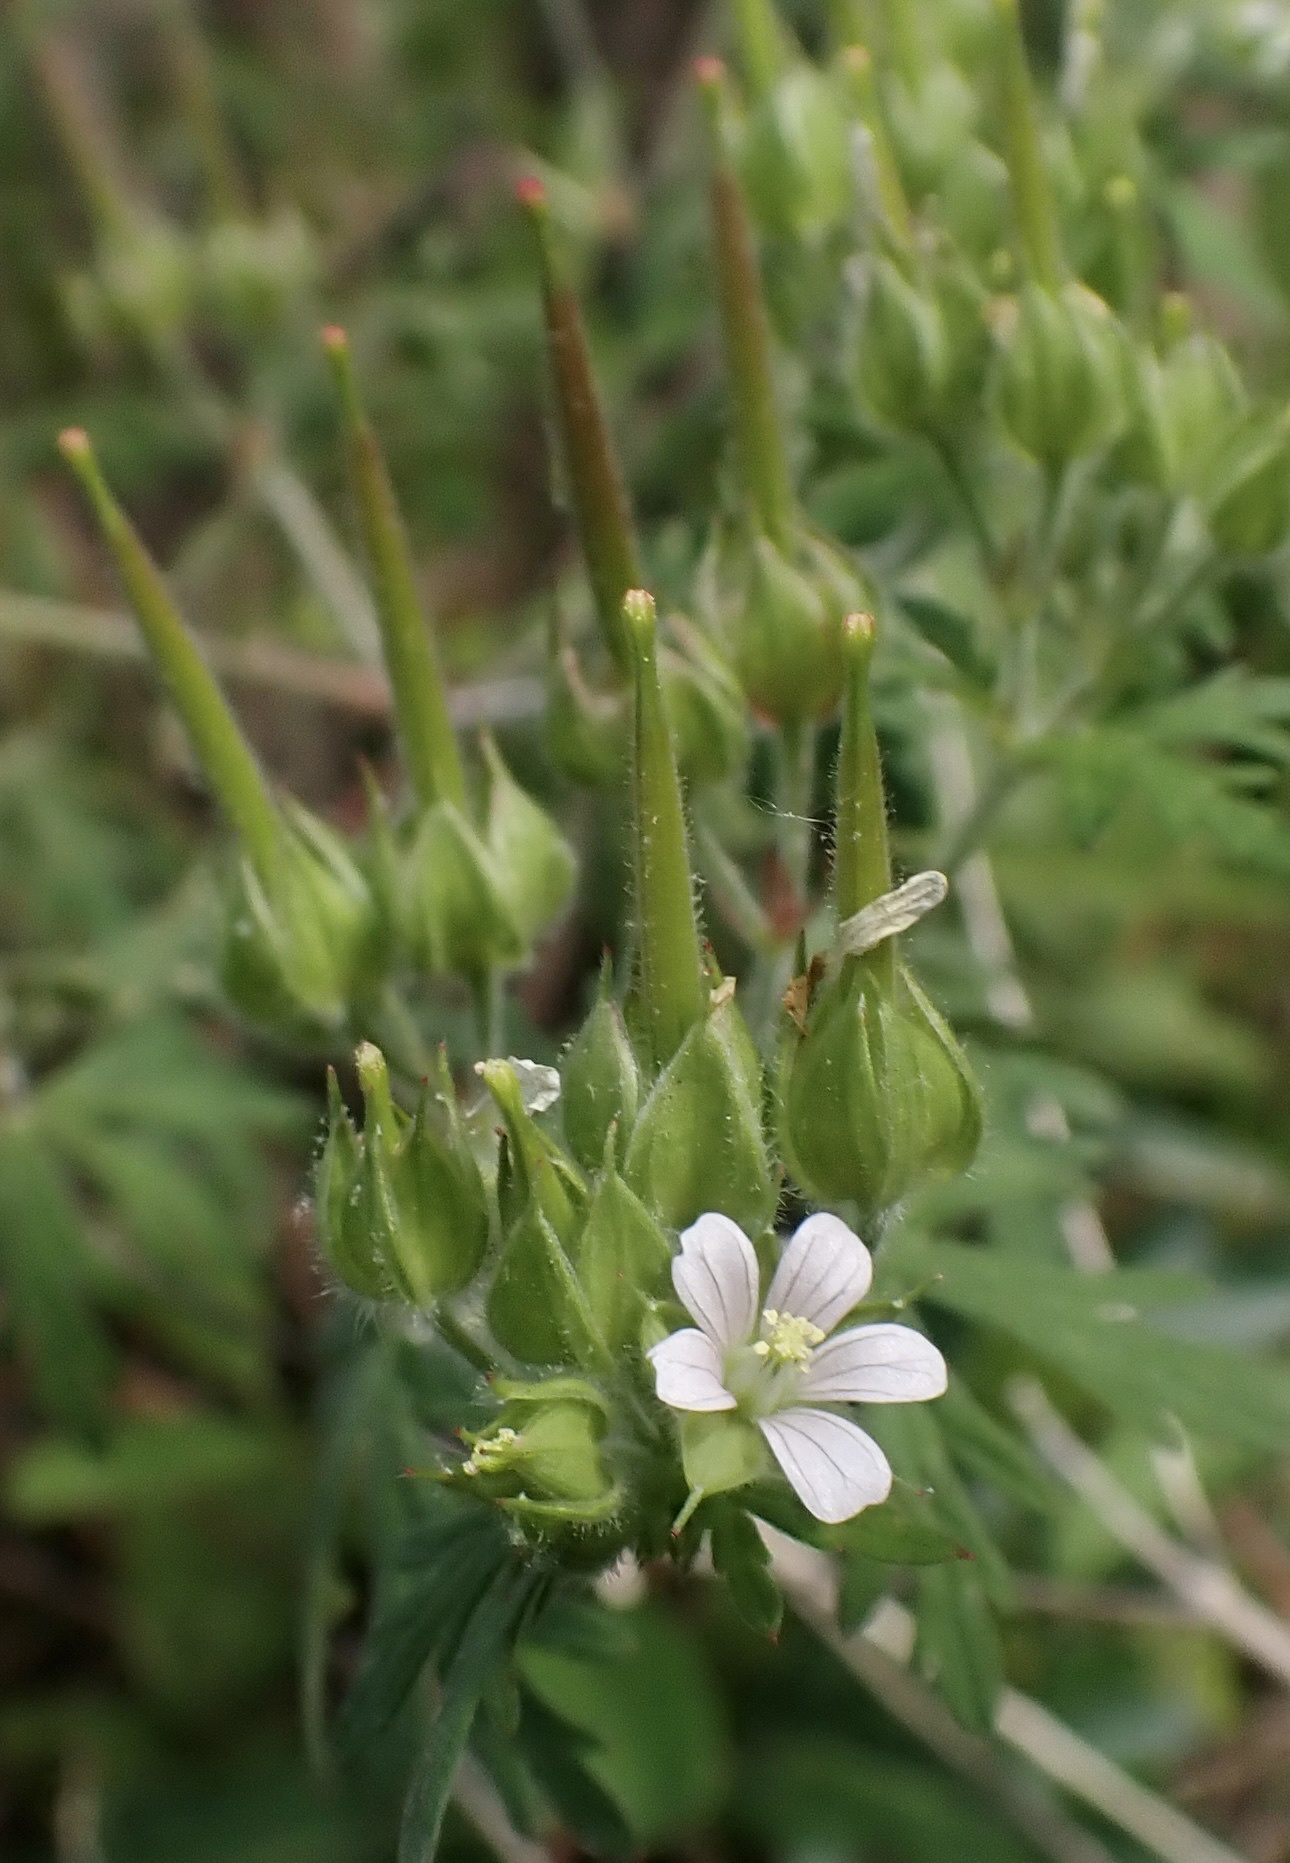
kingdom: Plantae
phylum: Tracheophyta
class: Magnoliopsida
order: Geraniales
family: Geraniaceae
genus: Geranium
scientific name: Geranium carolinianum
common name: Carolina crane's-bill
